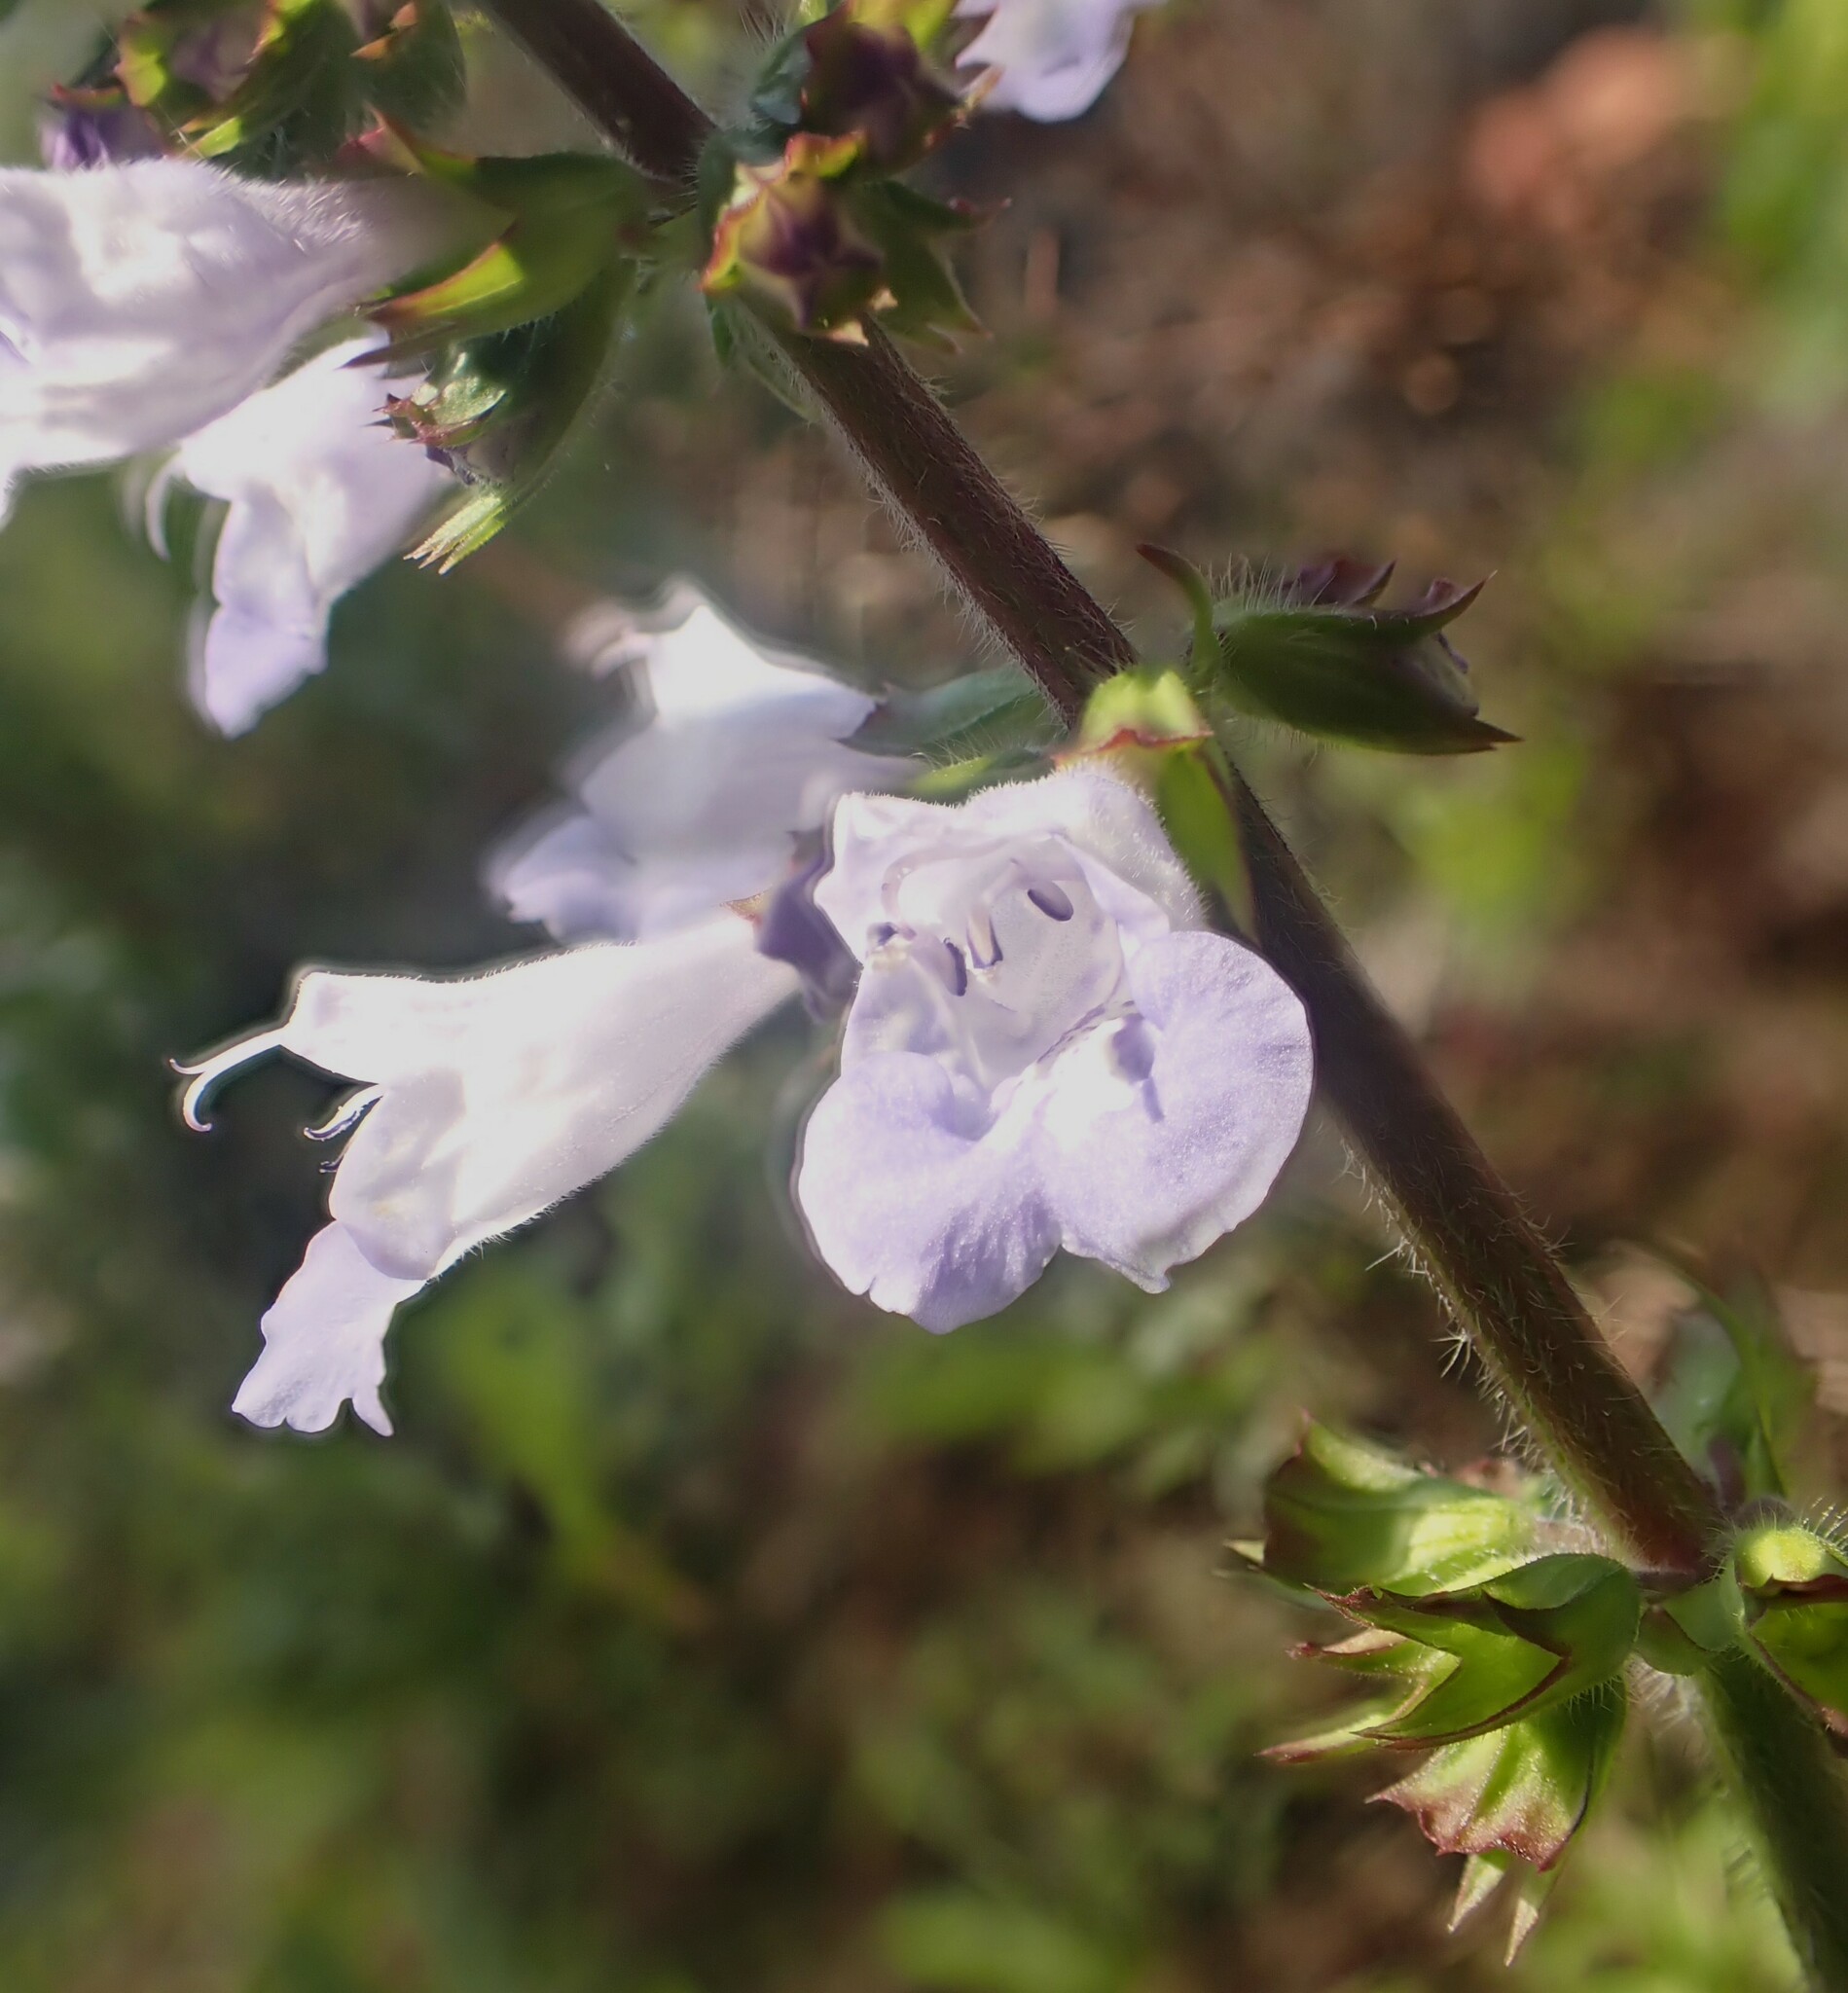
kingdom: Plantae
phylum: Tracheophyta
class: Magnoliopsida
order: Lamiales
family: Lamiaceae
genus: Salvia
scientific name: Salvia lyrata
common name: Cancerweed
